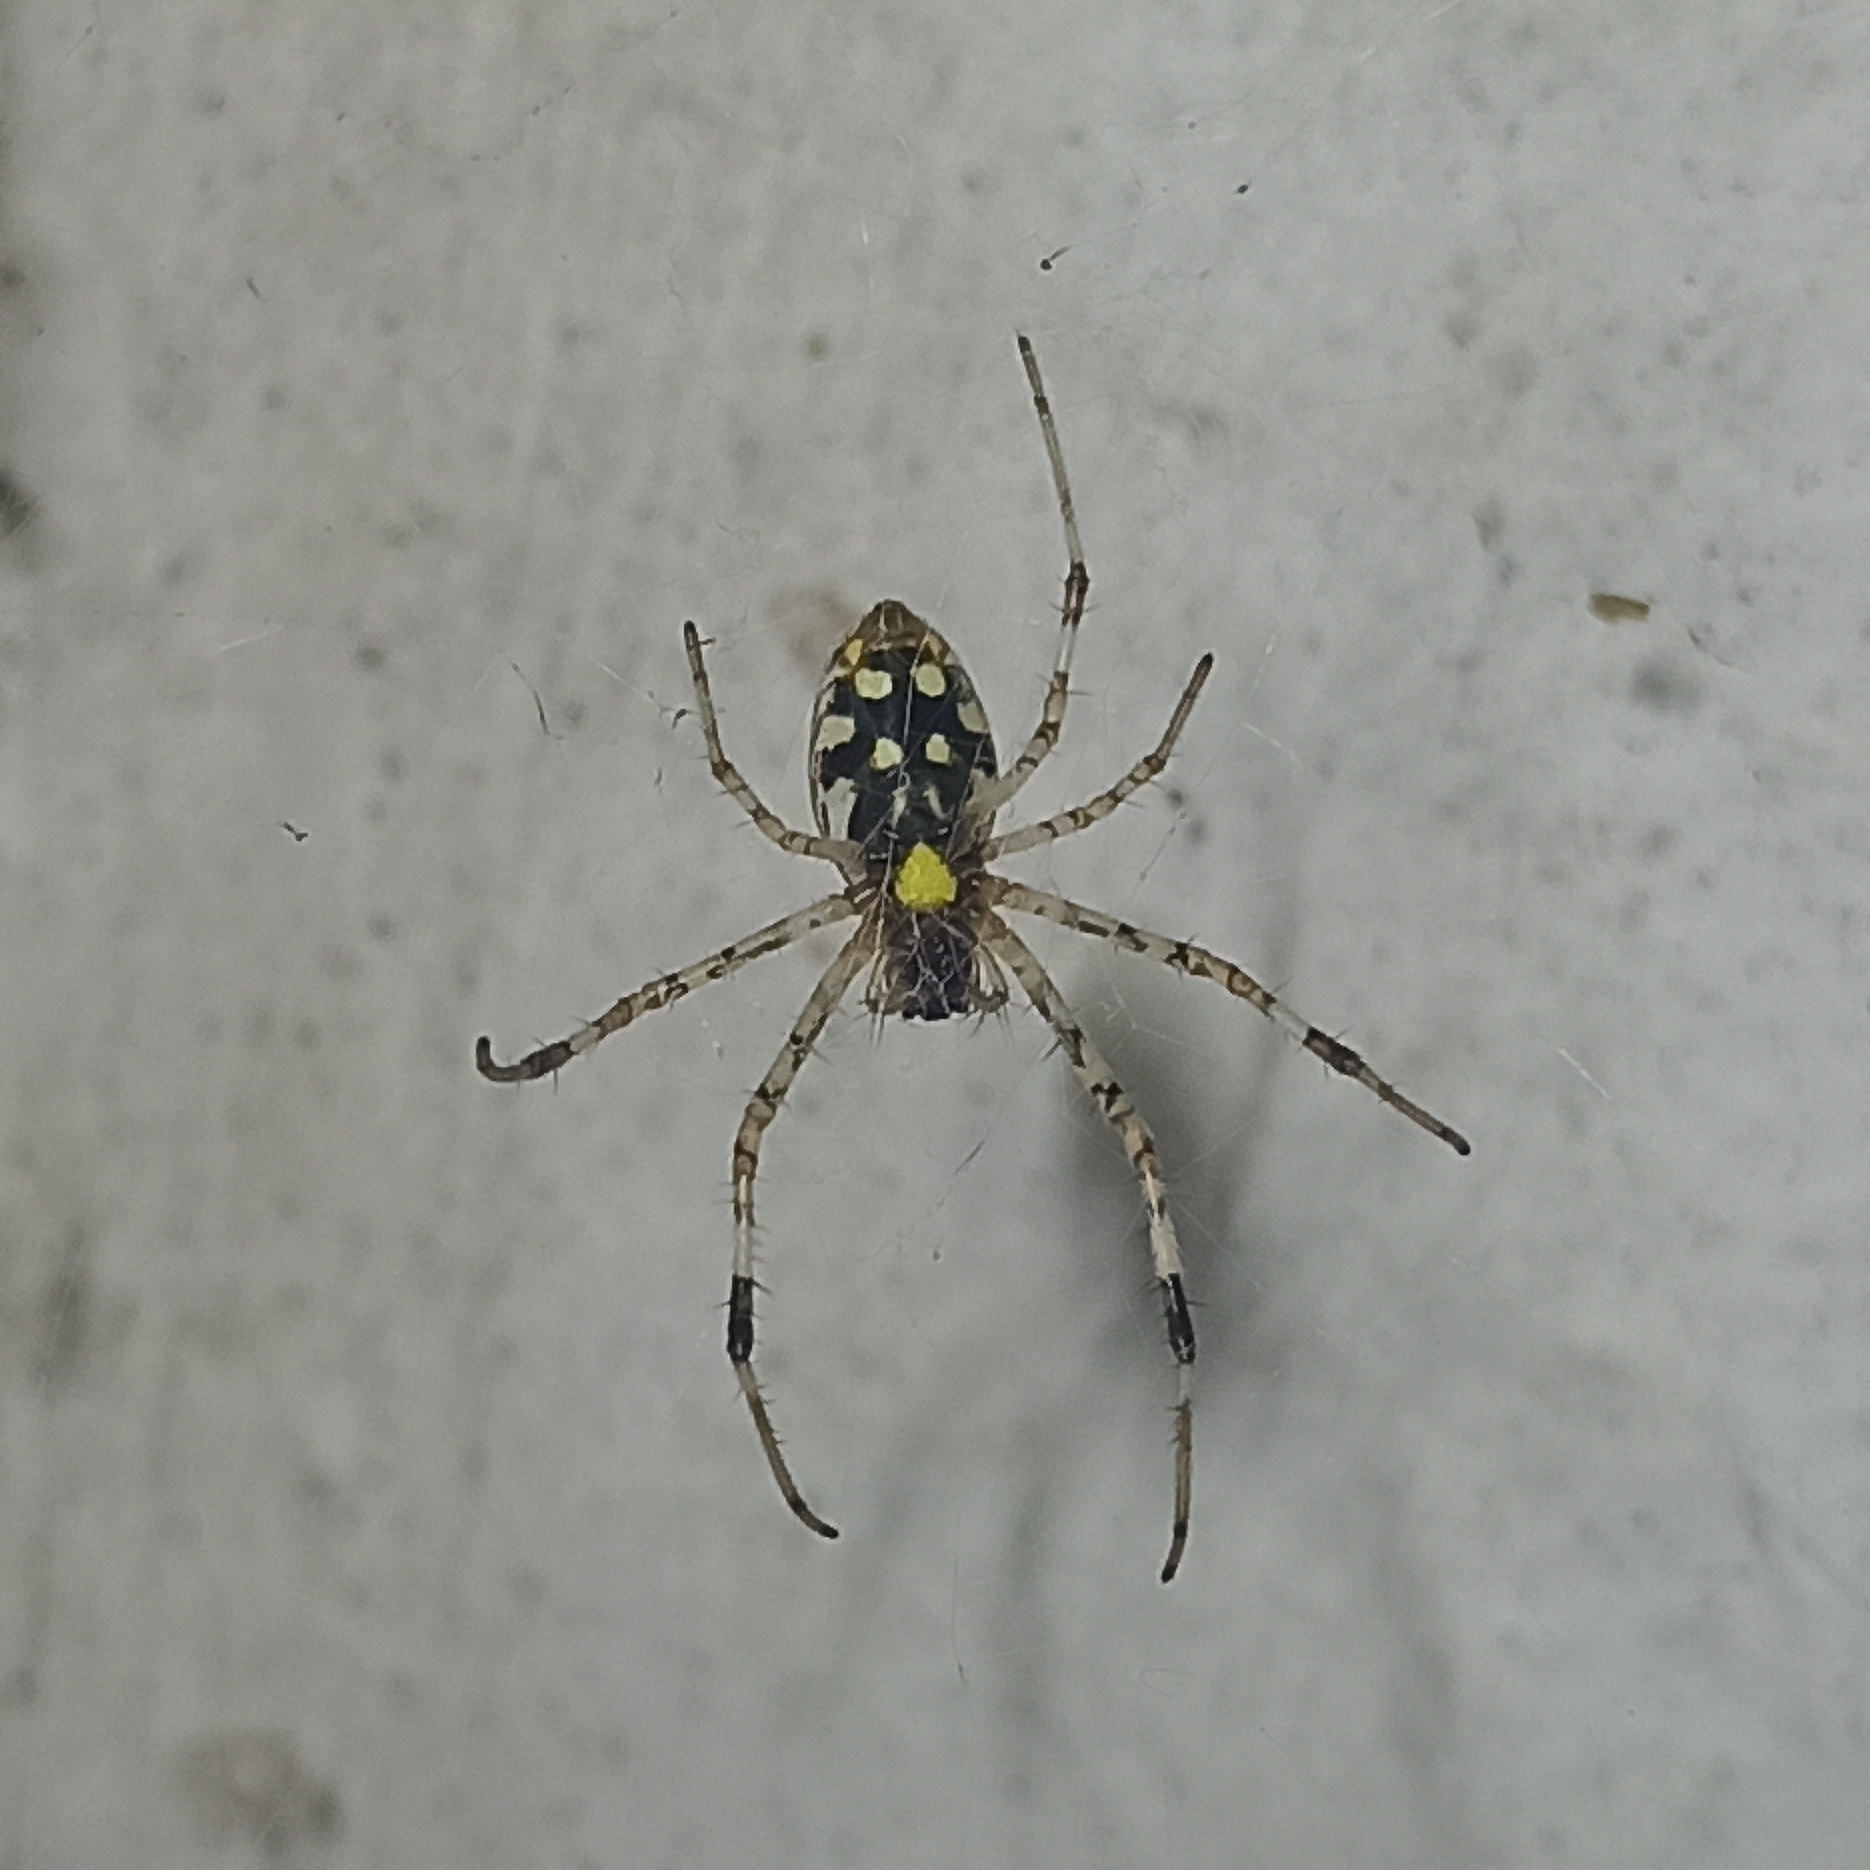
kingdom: Animalia
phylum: Arthropoda
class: Arachnida
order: Araneae
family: Araneidae
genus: Nephilingis
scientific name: Nephilingis cruentata
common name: African hermit spider
